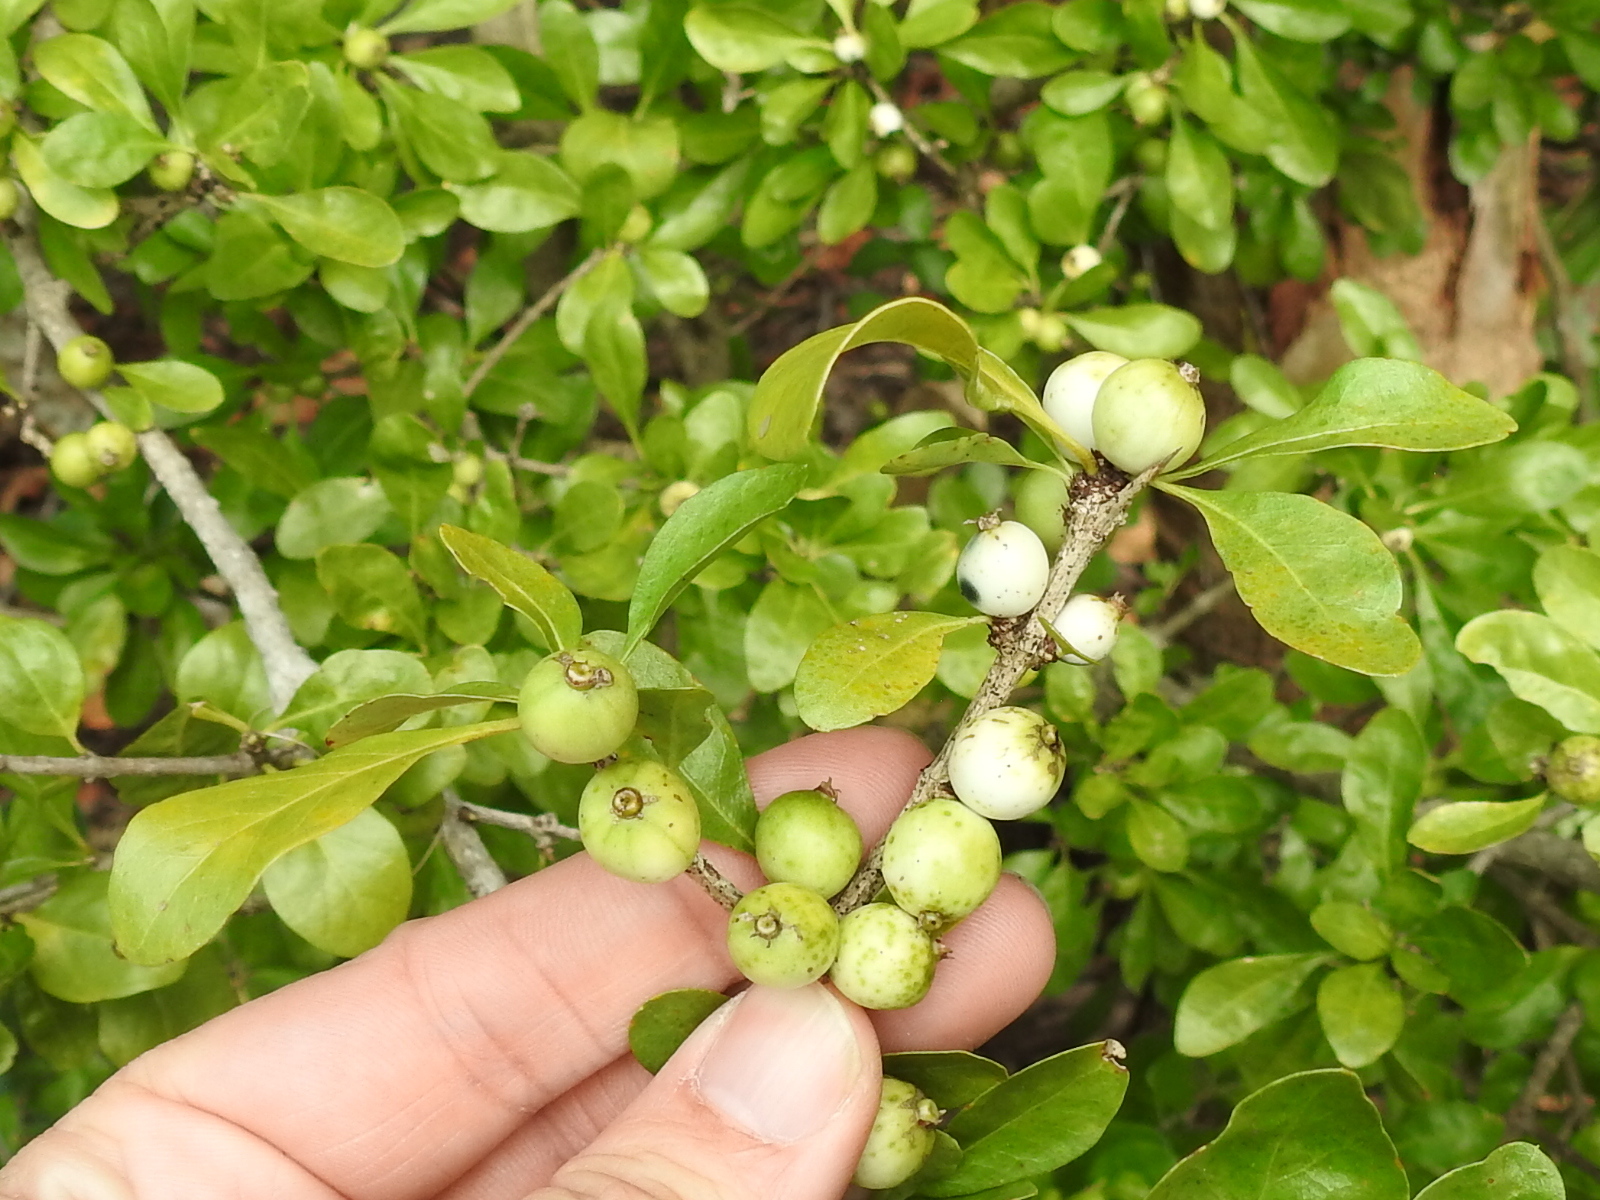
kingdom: Plantae
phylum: Tracheophyta
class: Magnoliopsida
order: Gentianales
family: Rubiaceae
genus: Randia
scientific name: Randia aculeata
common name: Inkberry
